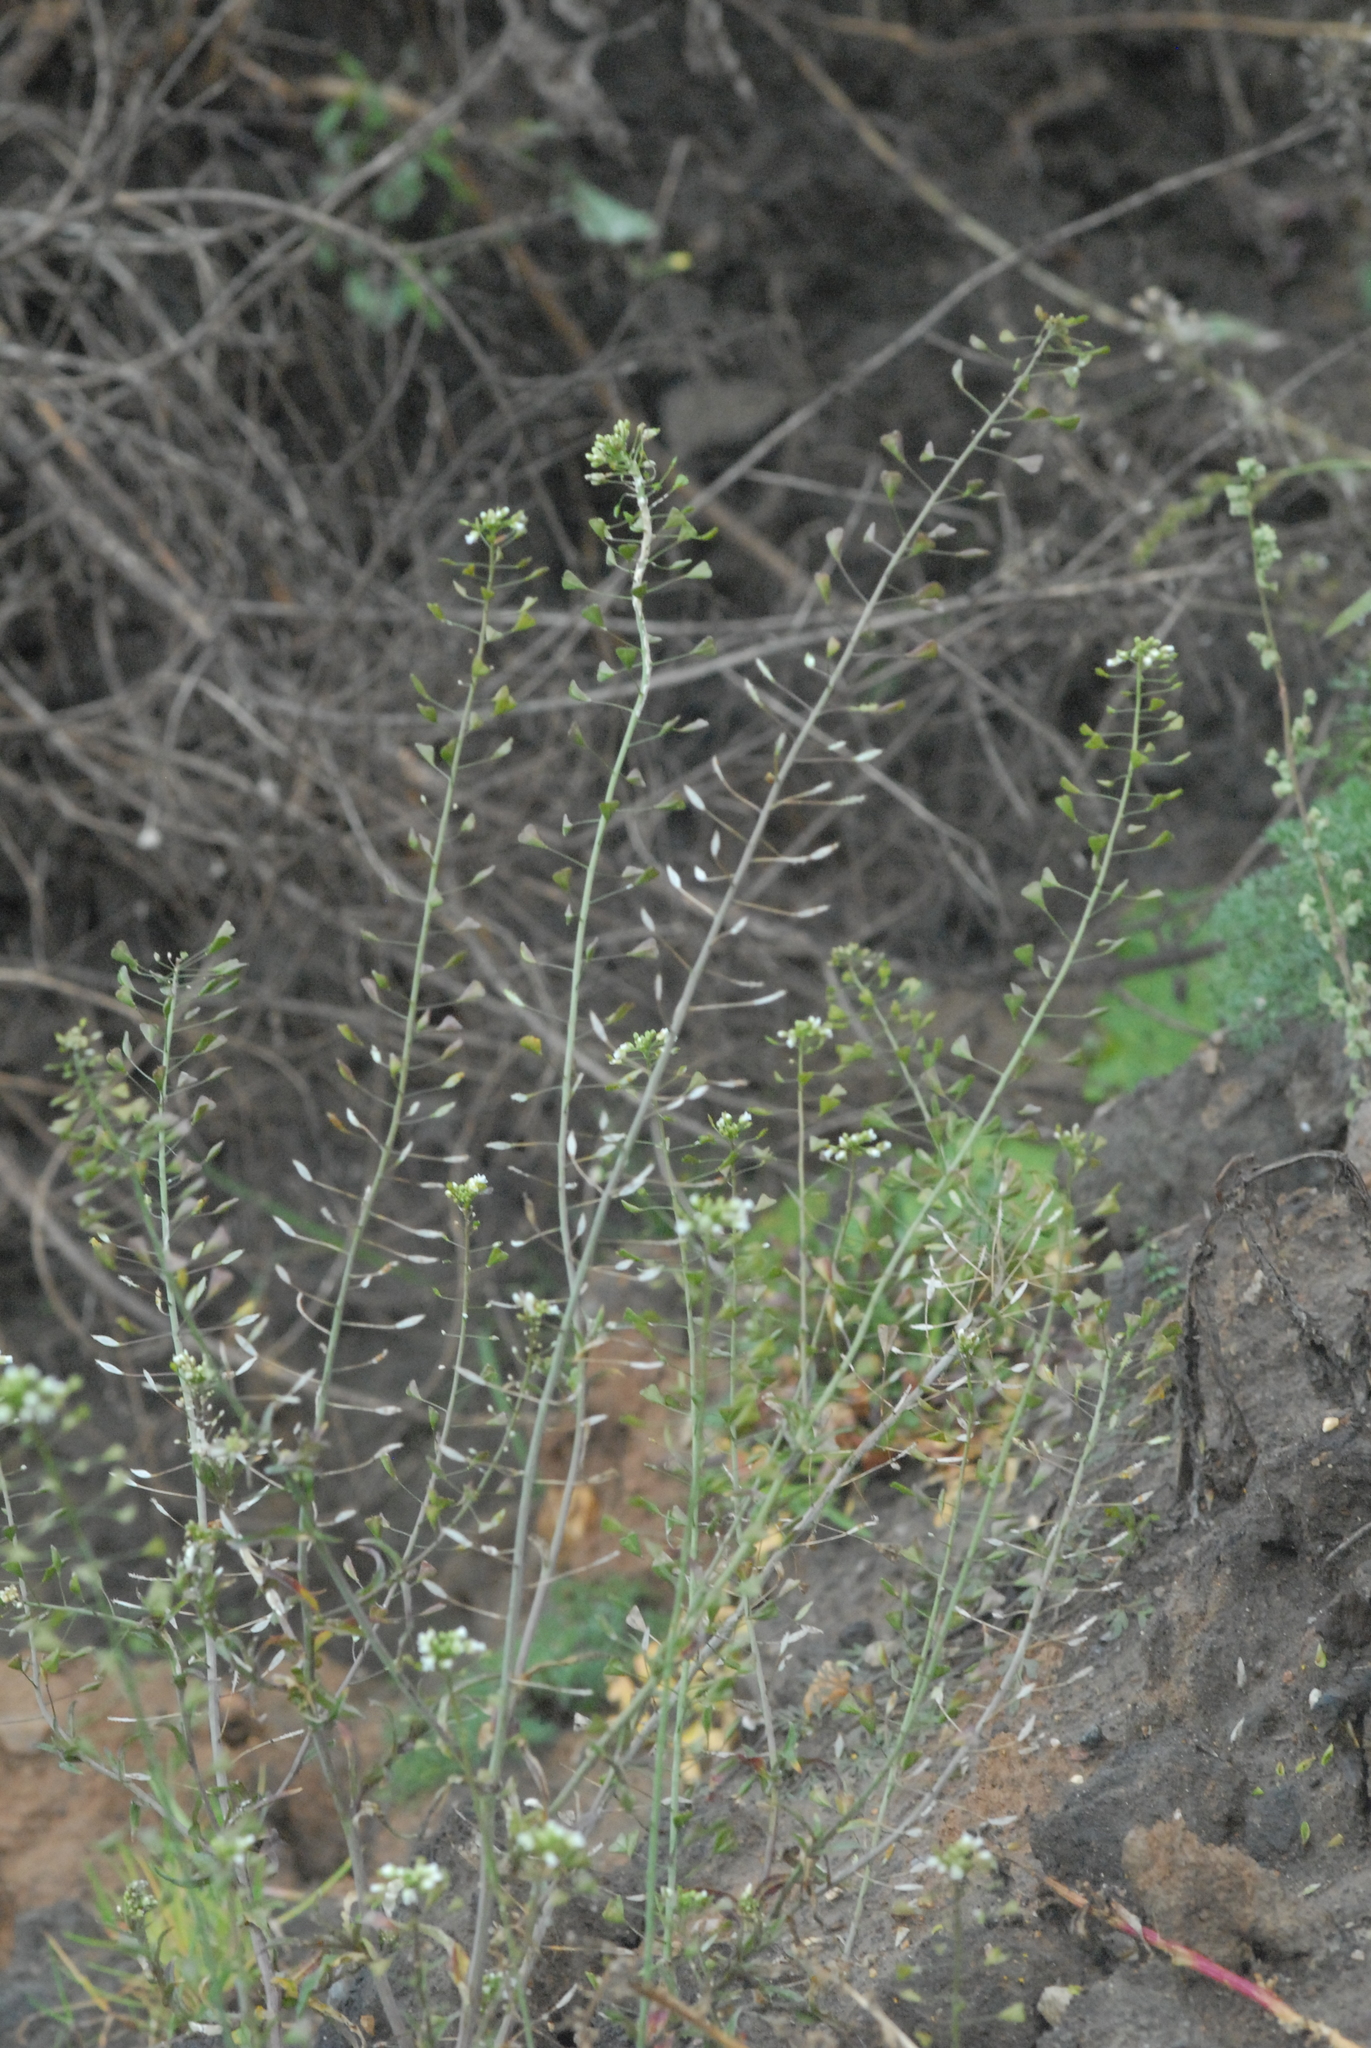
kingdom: Plantae
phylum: Tracheophyta
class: Magnoliopsida
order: Brassicales
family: Brassicaceae
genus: Capsella
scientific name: Capsella bursa-pastoris
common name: Shepherd's purse
